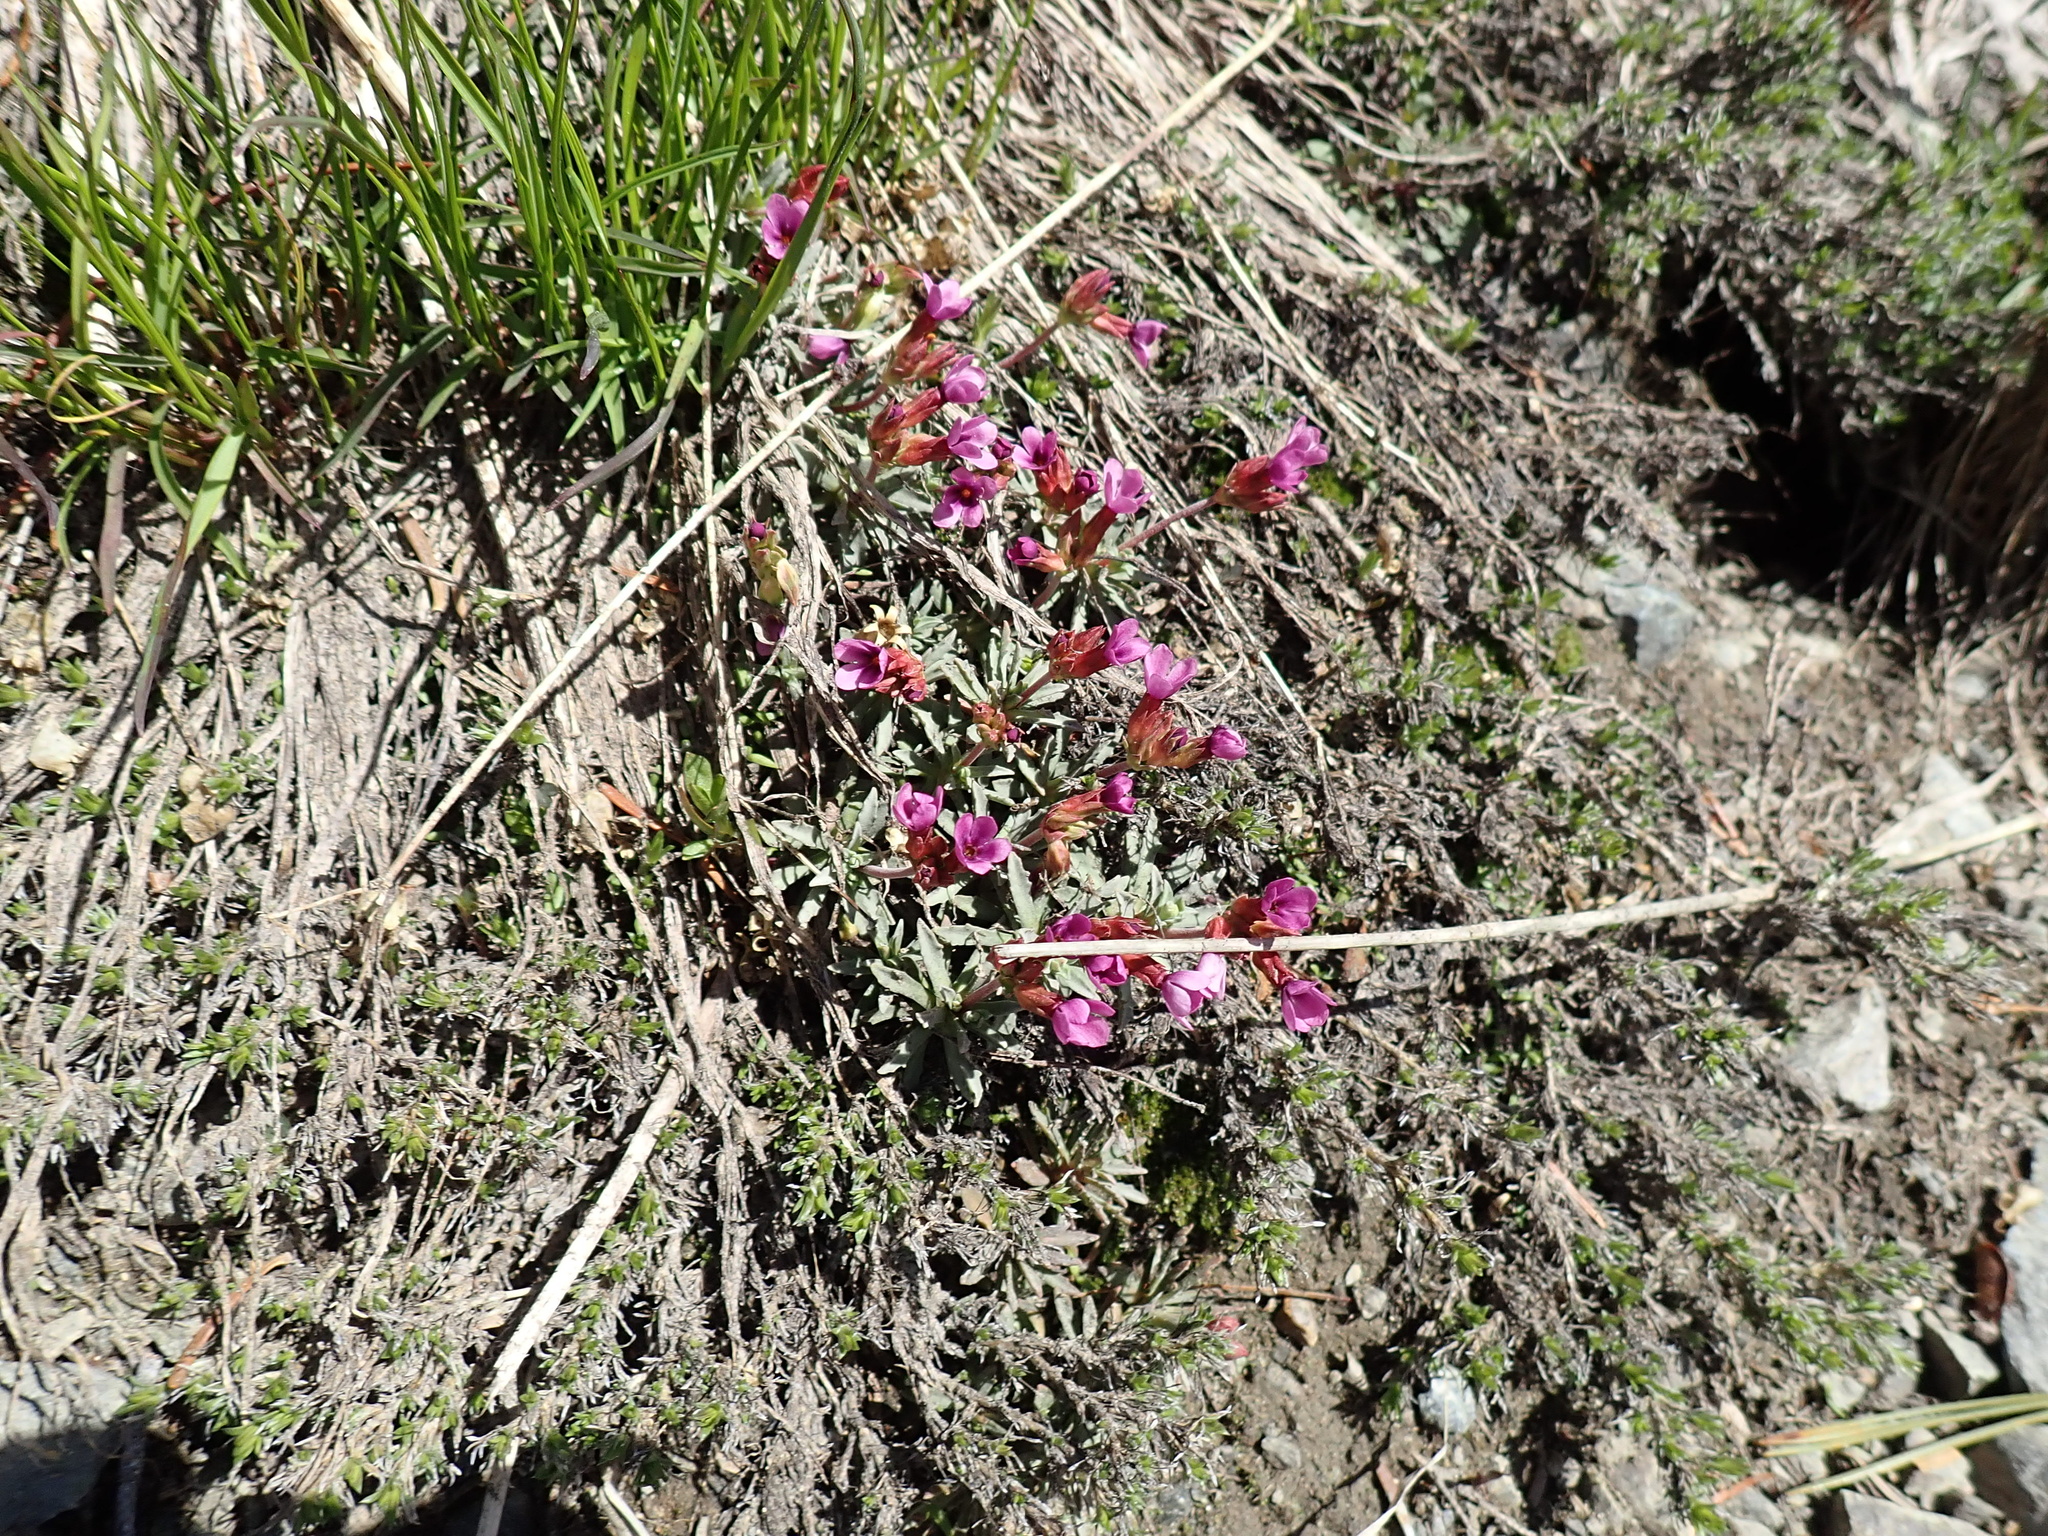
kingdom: Plantae
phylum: Tracheophyta
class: Magnoliopsida
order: Ericales
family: Primulaceae
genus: Androsace
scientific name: Androsace nivalis
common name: Snow dwarf-primrose
